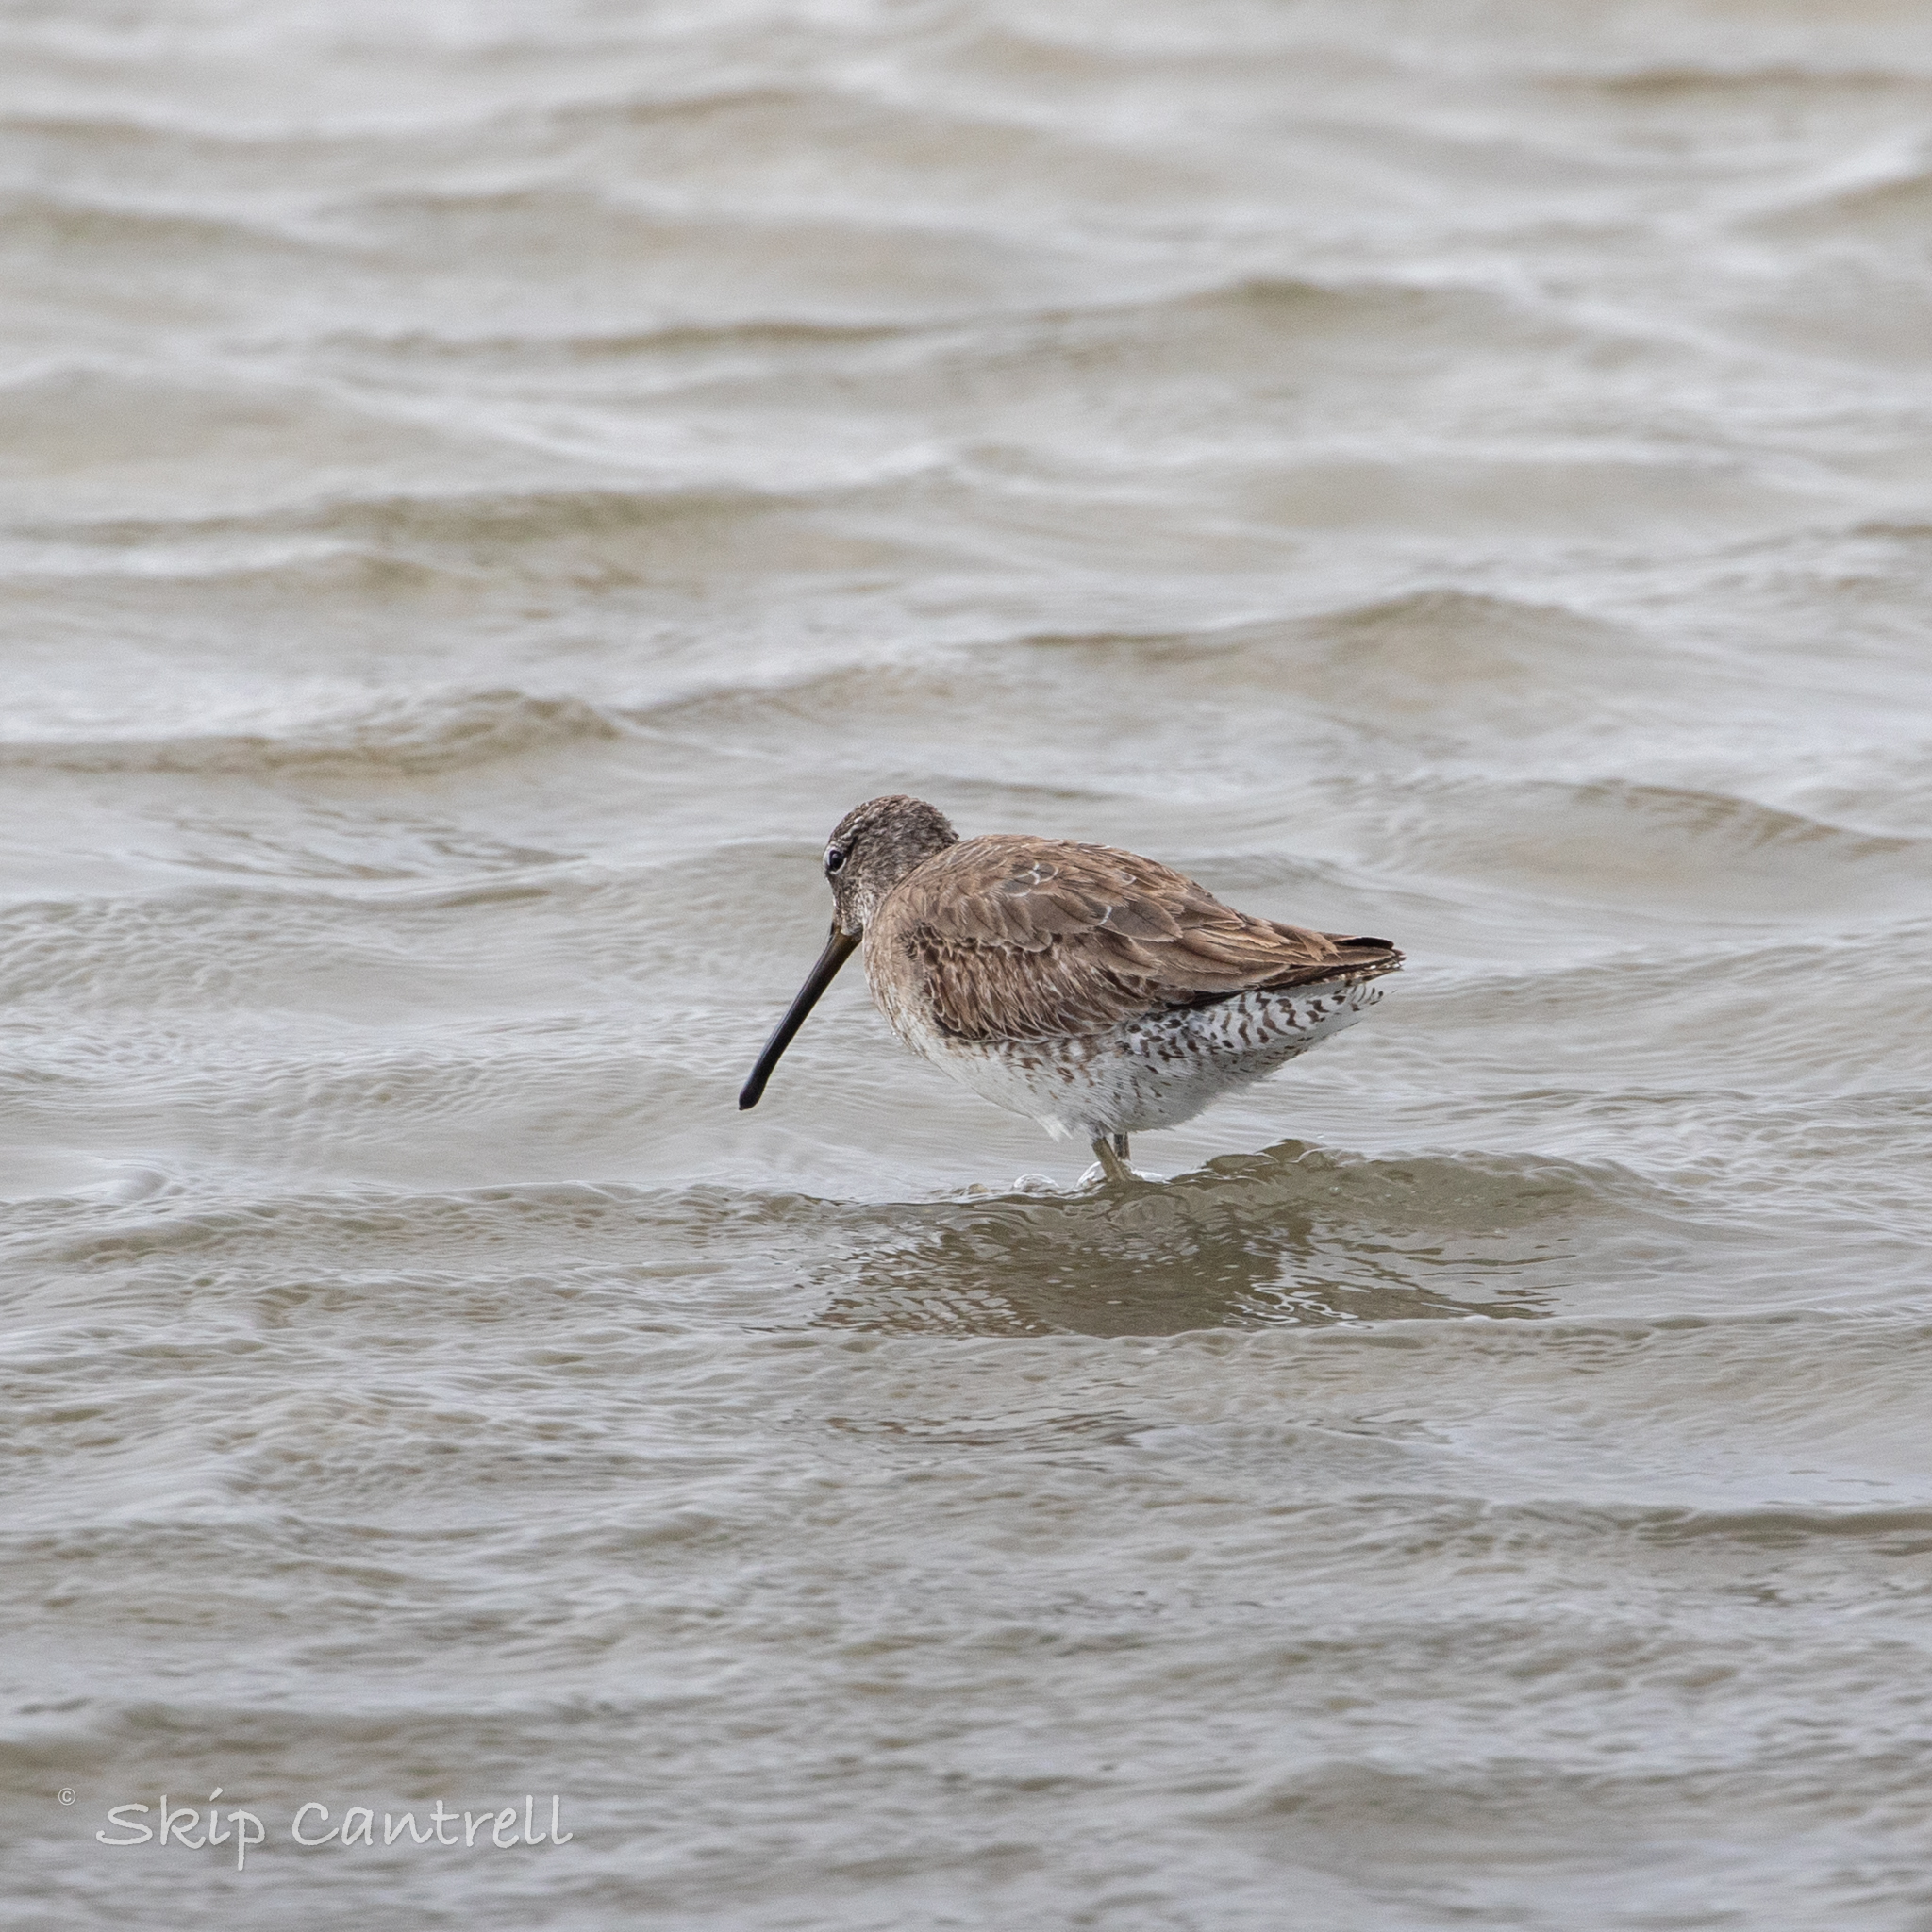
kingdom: Animalia
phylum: Chordata
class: Aves
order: Charadriiformes
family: Scolopacidae
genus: Limnodromus
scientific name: Limnodromus griseus
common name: Short-billed dowitcher
